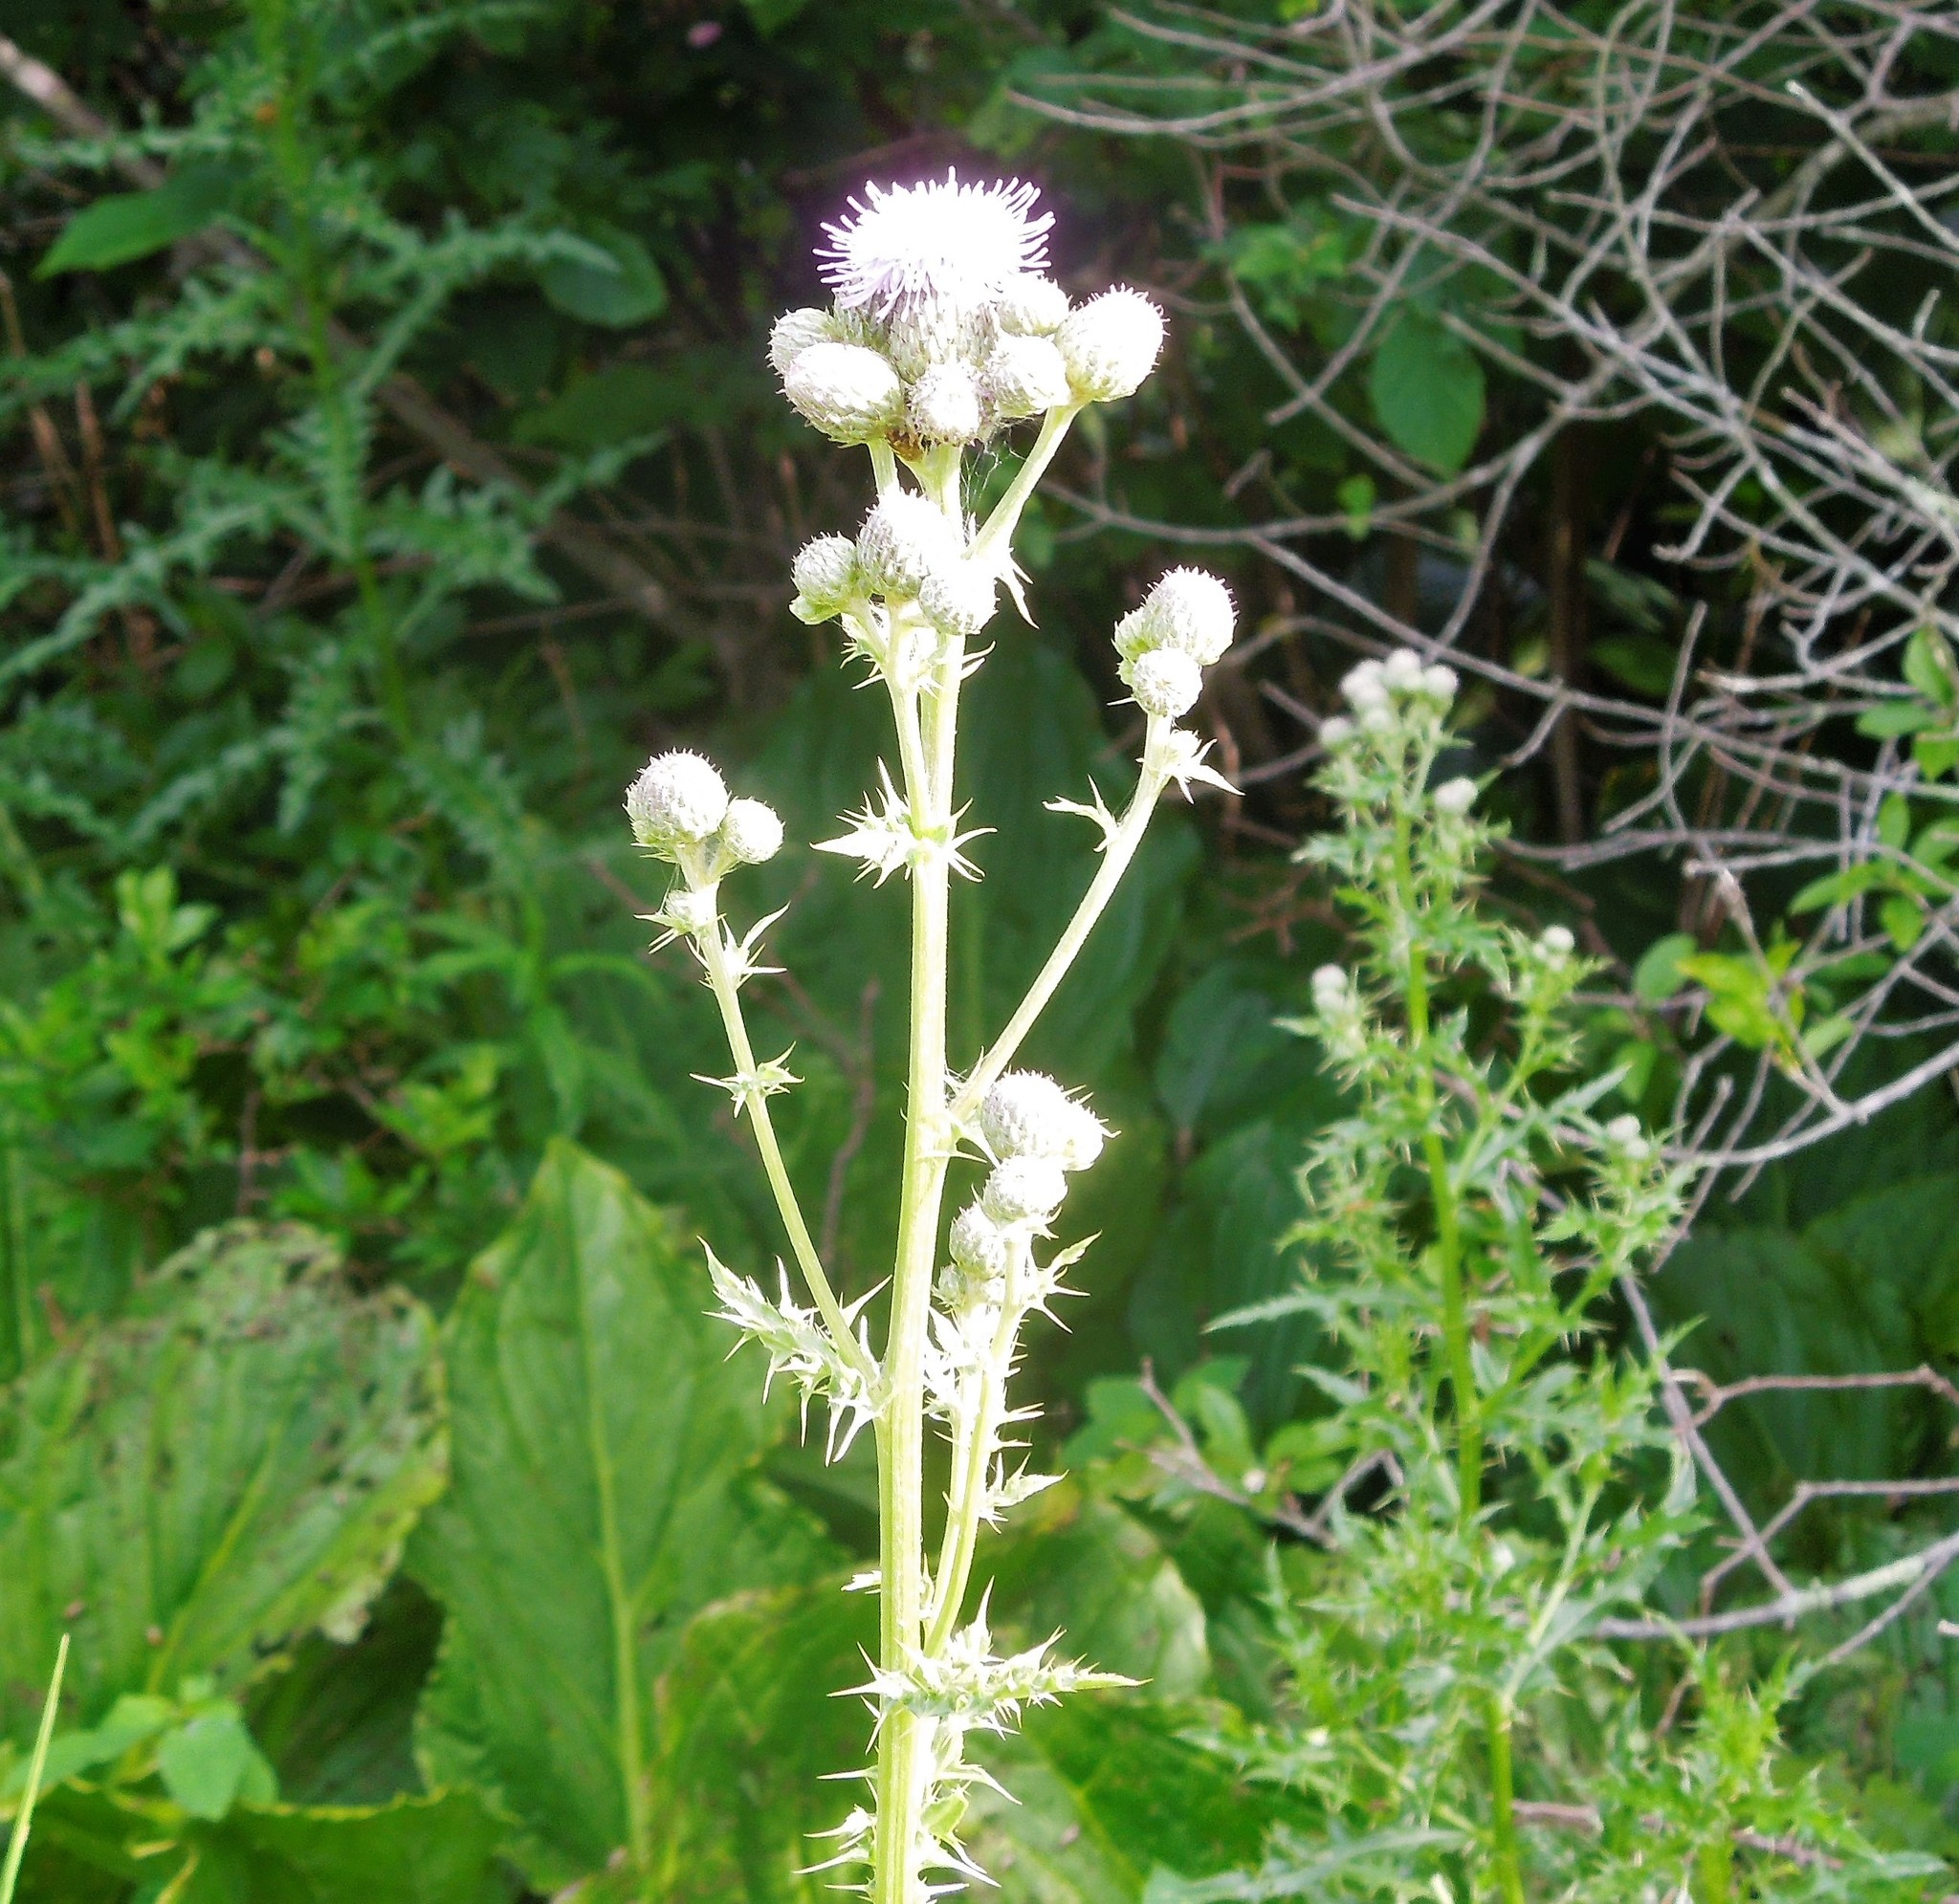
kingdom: Plantae
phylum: Tracheophyta
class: Magnoliopsida
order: Asterales
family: Asteraceae
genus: Cirsium
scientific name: Cirsium arvense
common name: Creeping thistle
